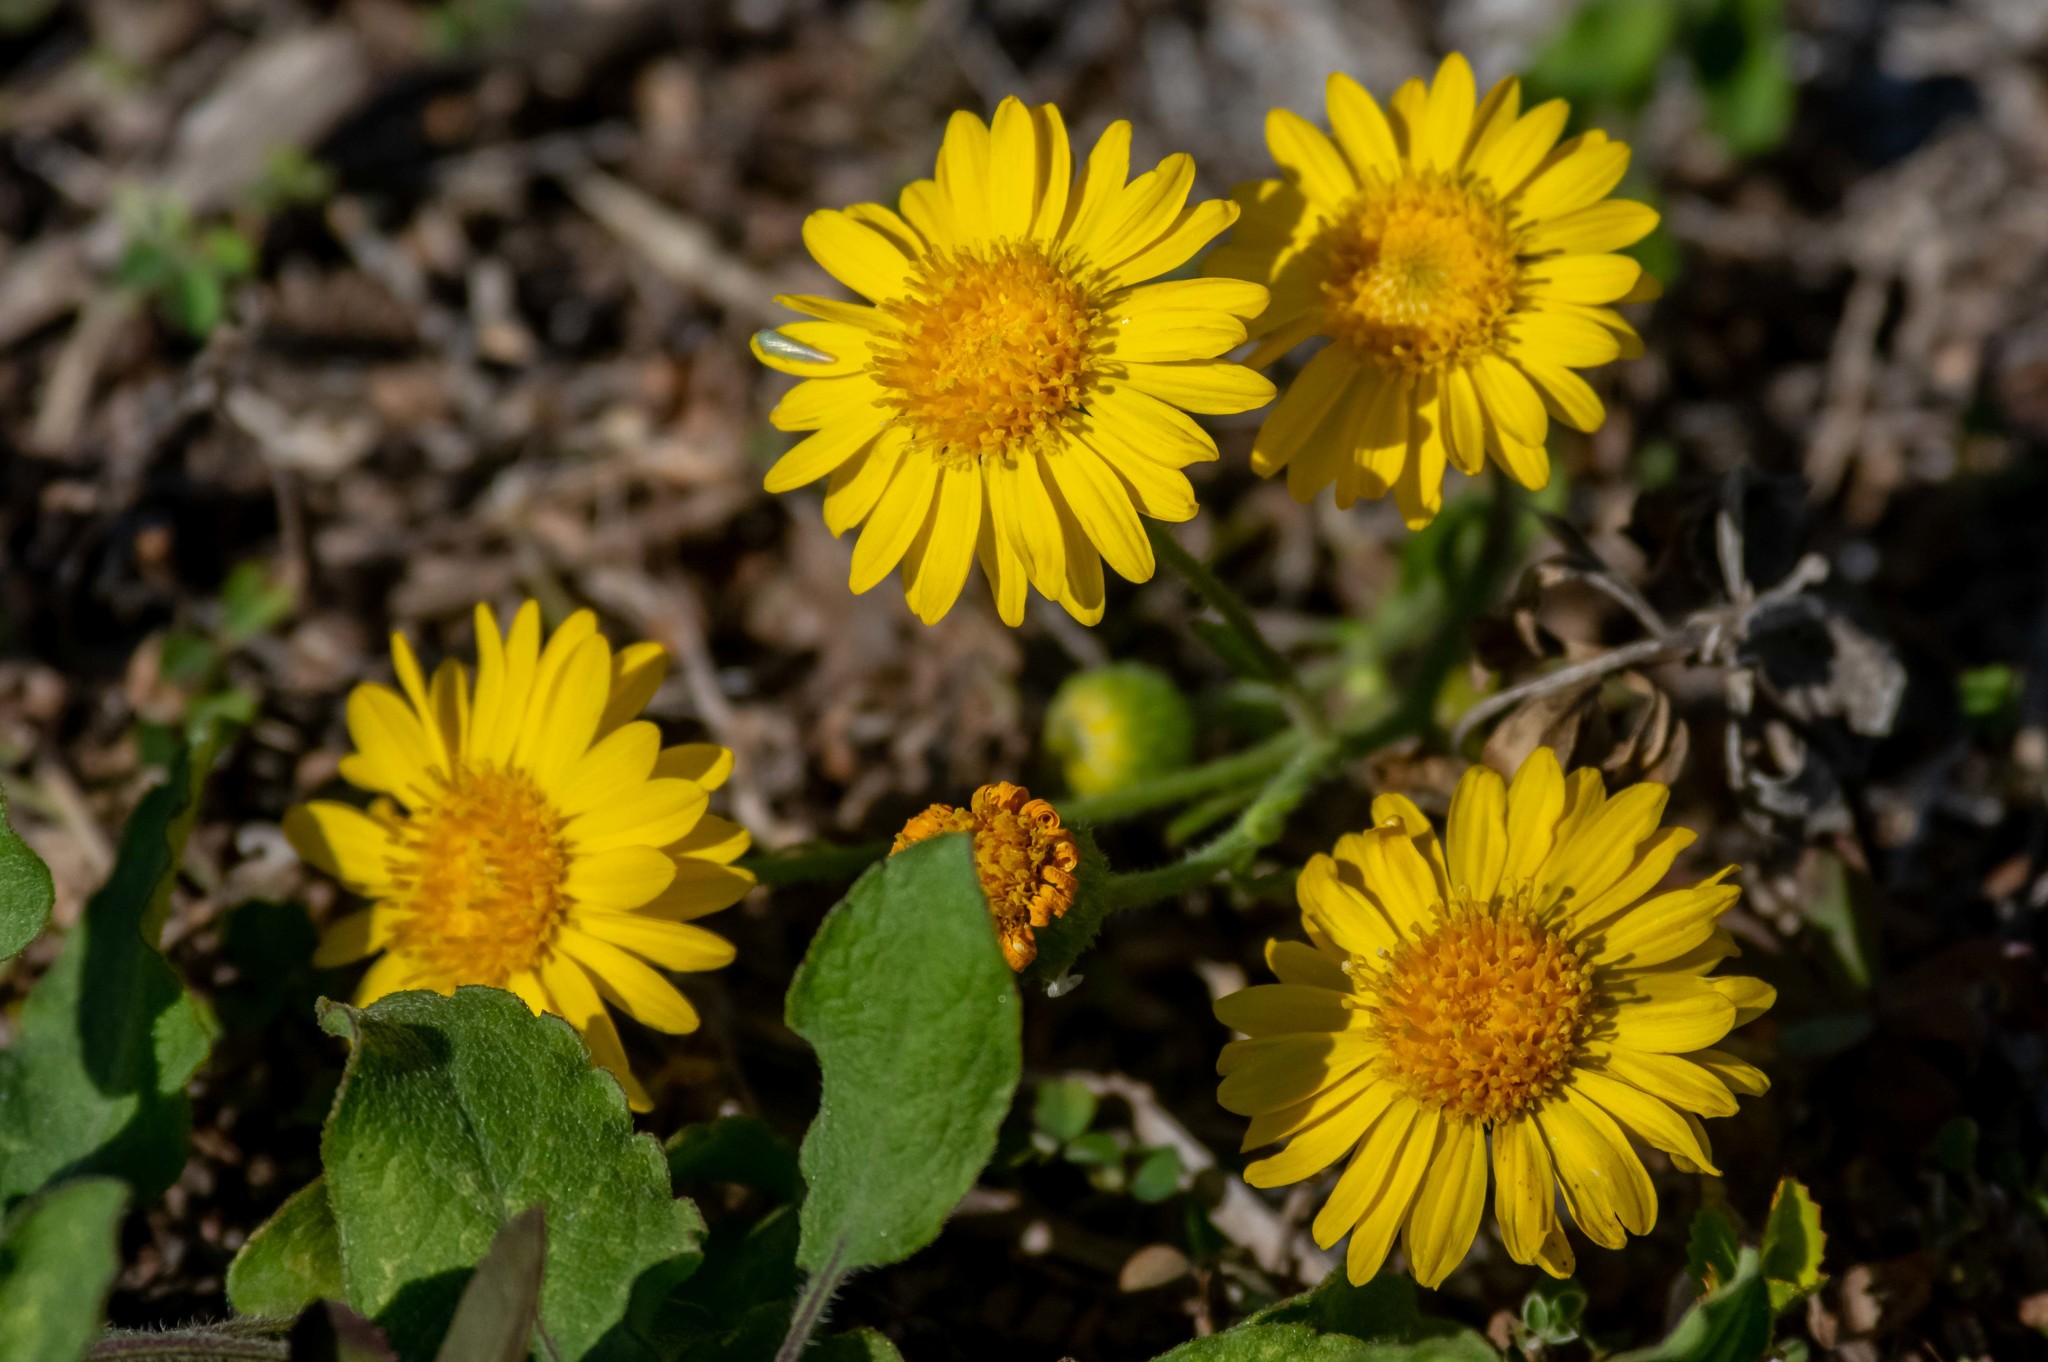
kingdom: Plantae
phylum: Tracheophyta
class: Magnoliopsida
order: Asterales
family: Asteraceae
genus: Heterotheca
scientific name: Heterotheca subaxillaris
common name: Camphorweed
